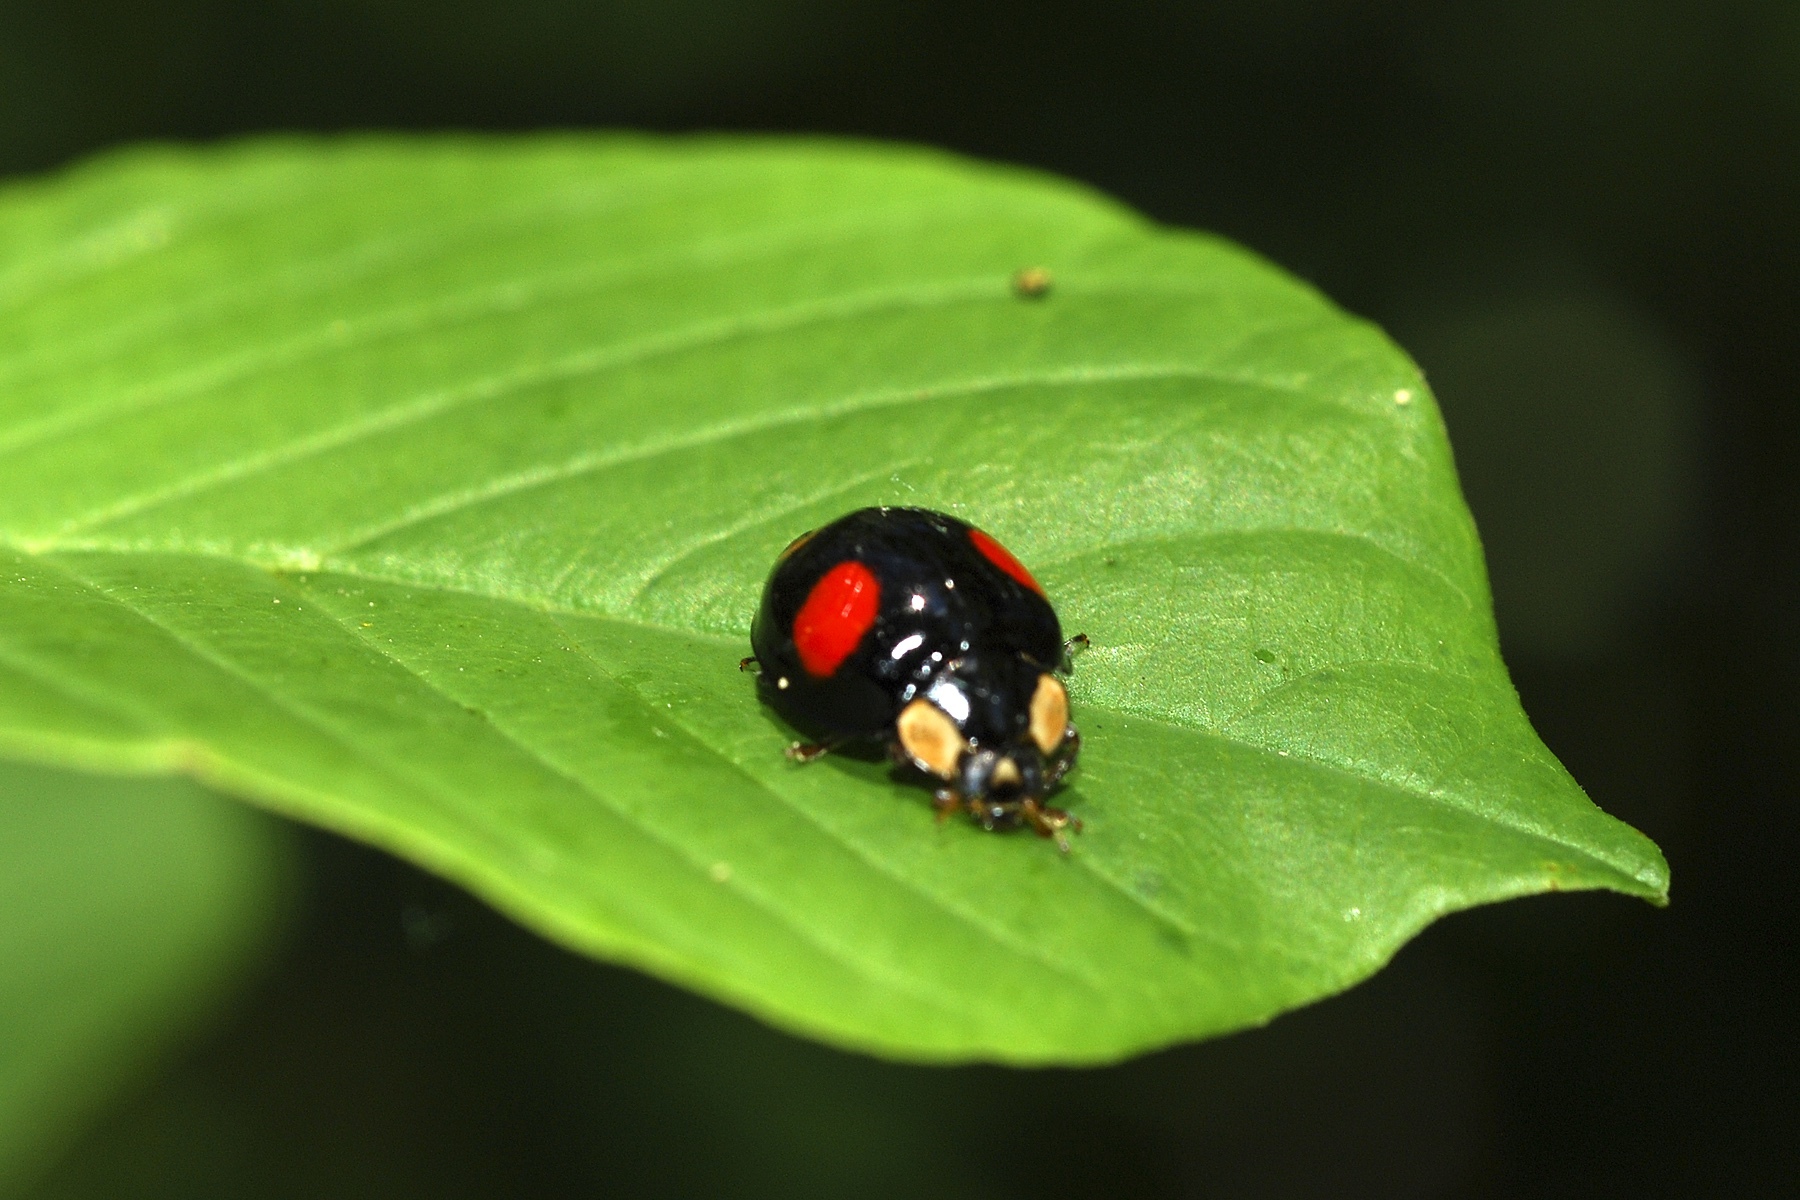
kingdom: Animalia
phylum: Arthropoda
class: Insecta
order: Coleoptera
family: Coccinellidae
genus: Harmonia
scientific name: Harmonia axyridis
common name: Harlequin ladybird
